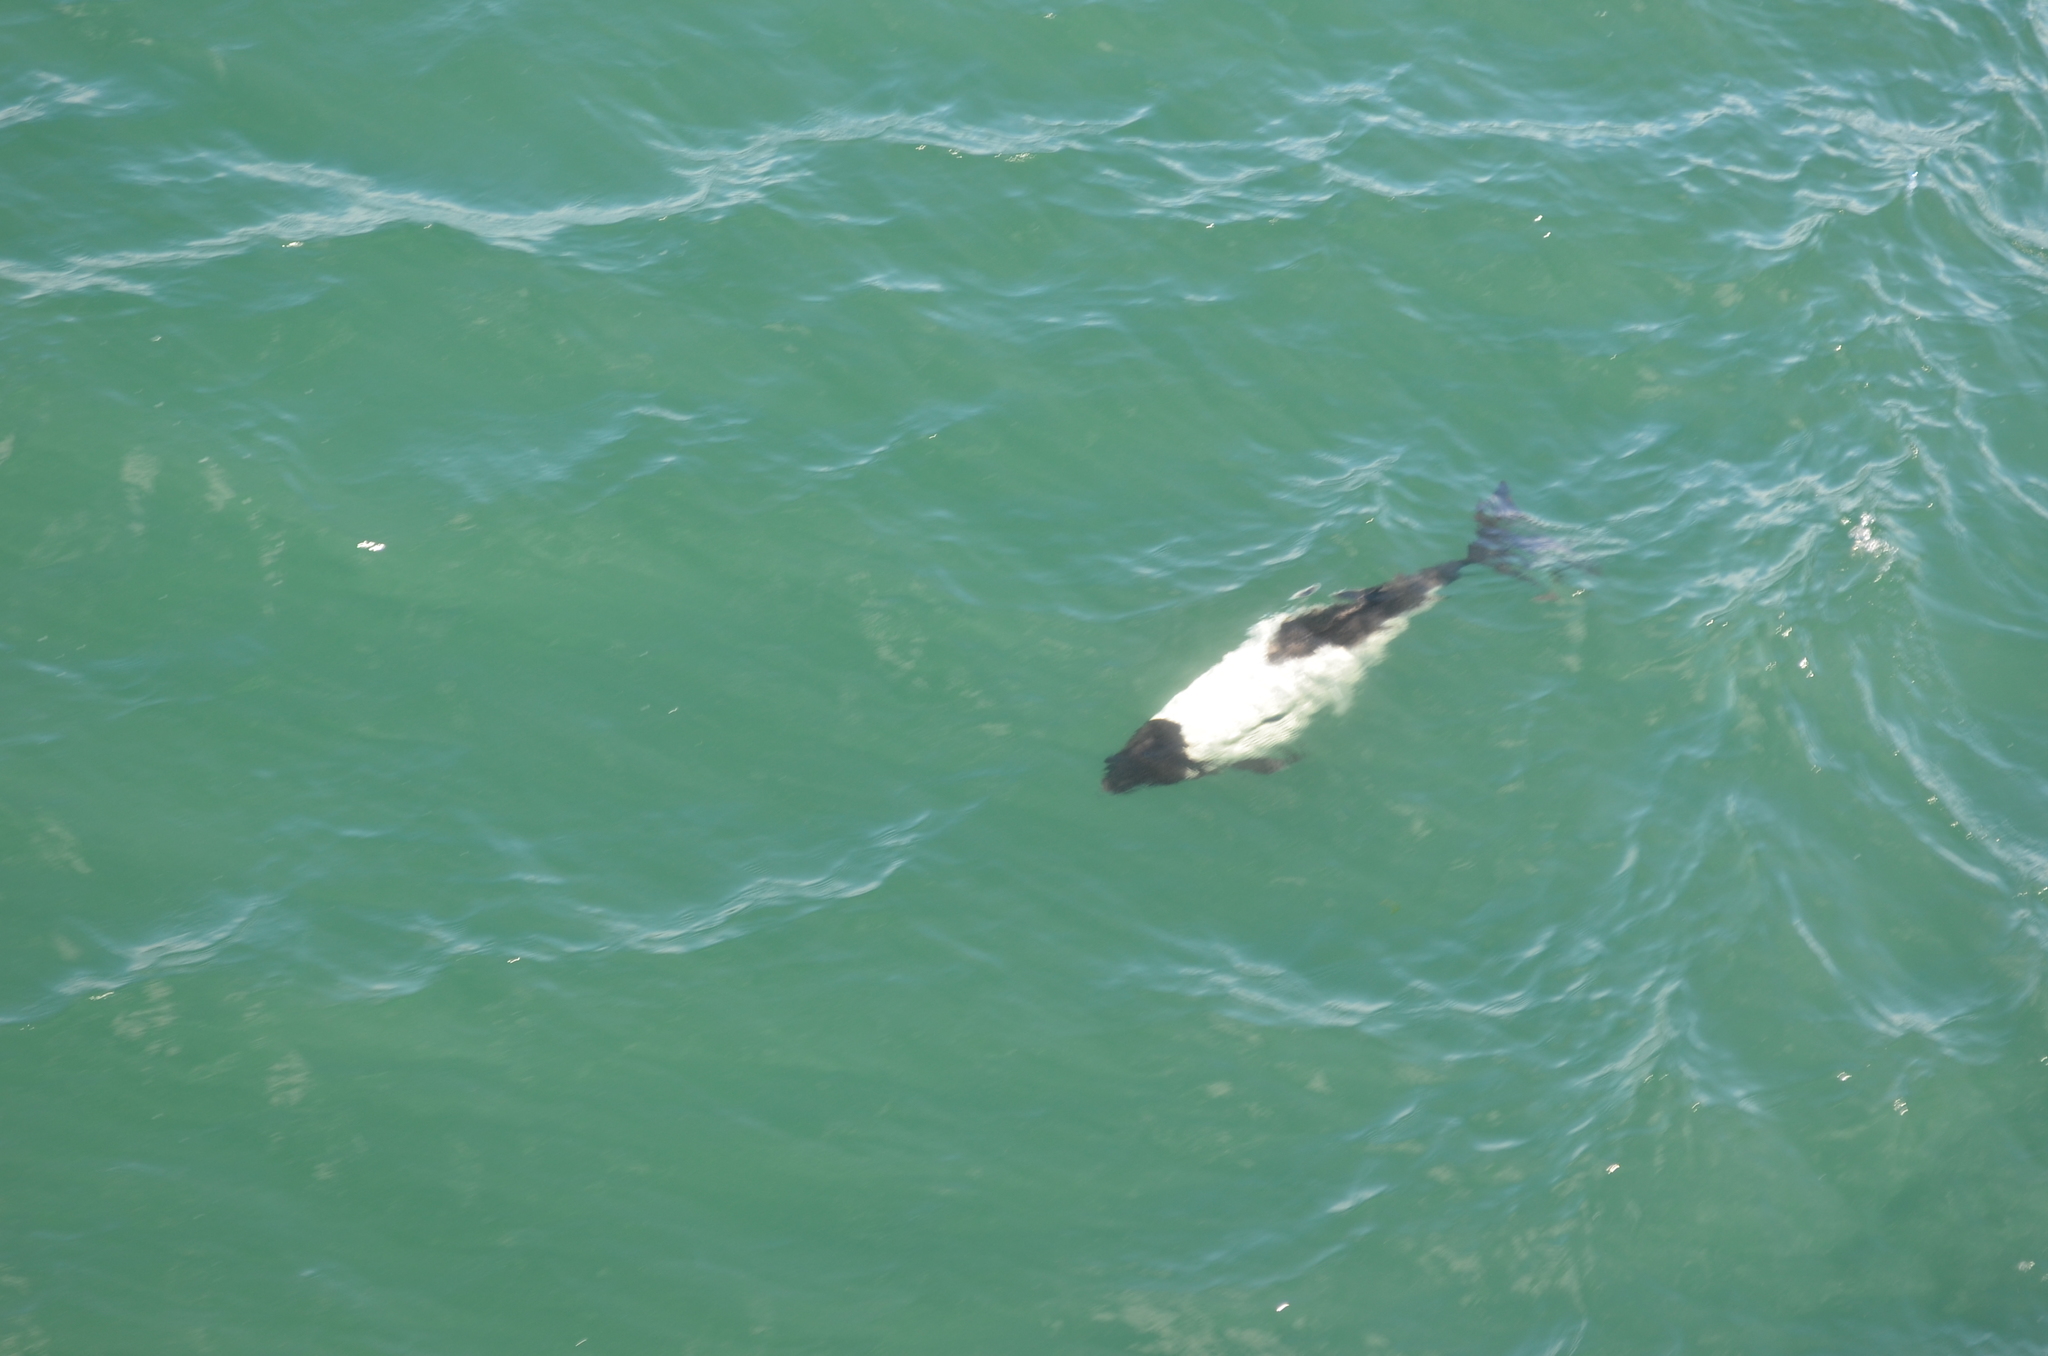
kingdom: Animalia
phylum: Chordata
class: Mammalia
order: Cetacea
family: Delphinidae
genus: Cephalorhynchus
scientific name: Cephalorhynchus commersonii
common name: Commerson's dolphin
